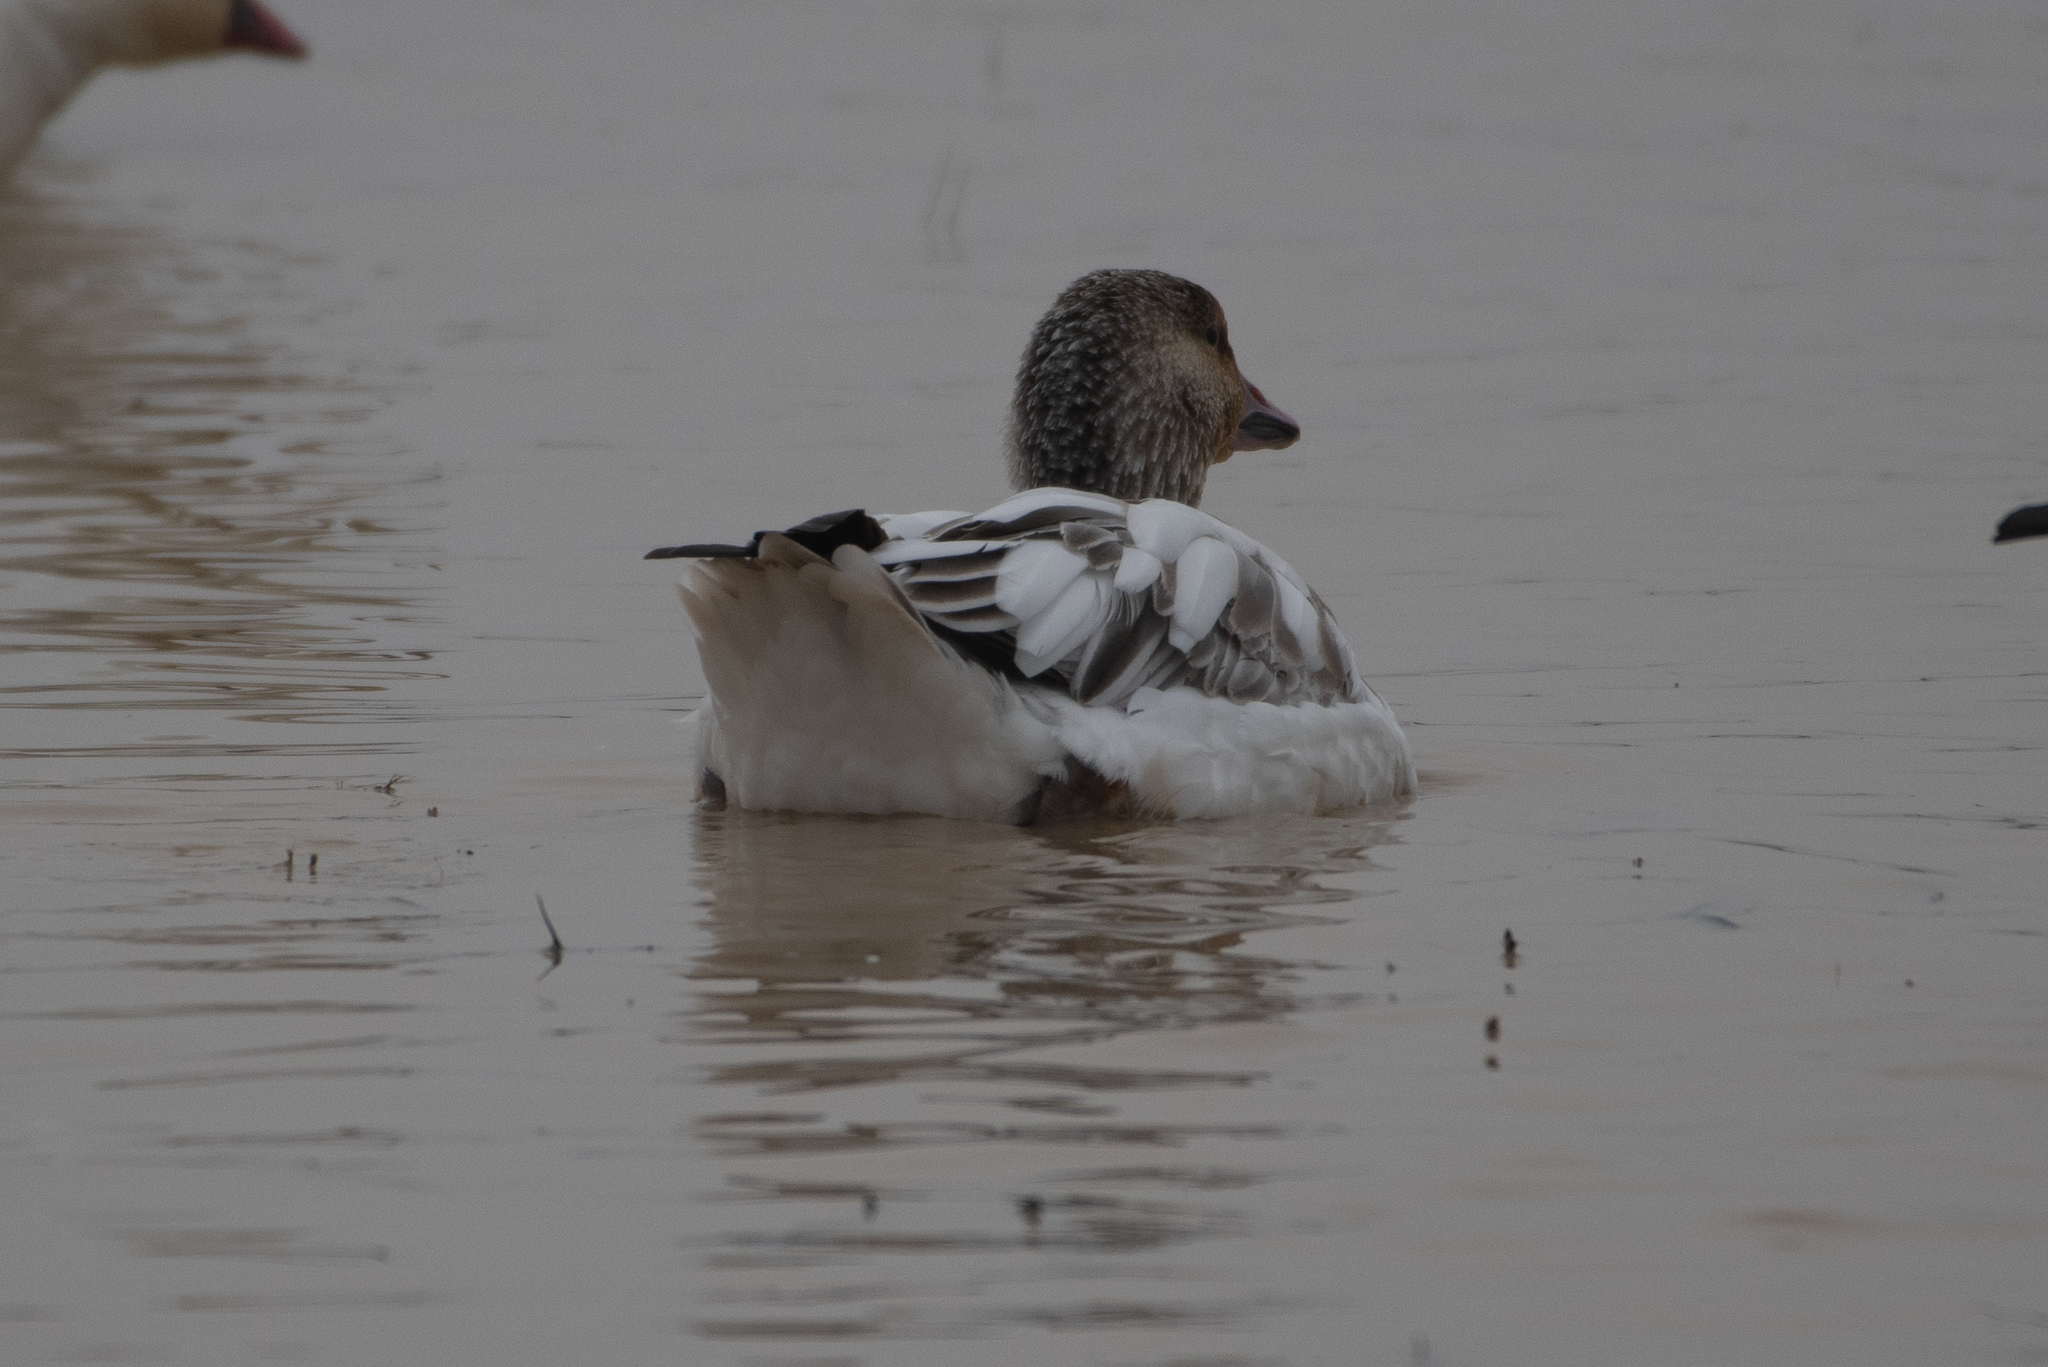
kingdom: Animalia
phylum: Chordata
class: Aves
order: Anseriformes
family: Anatidae
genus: Anser
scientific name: Anser caerulescens
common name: Snow goose
